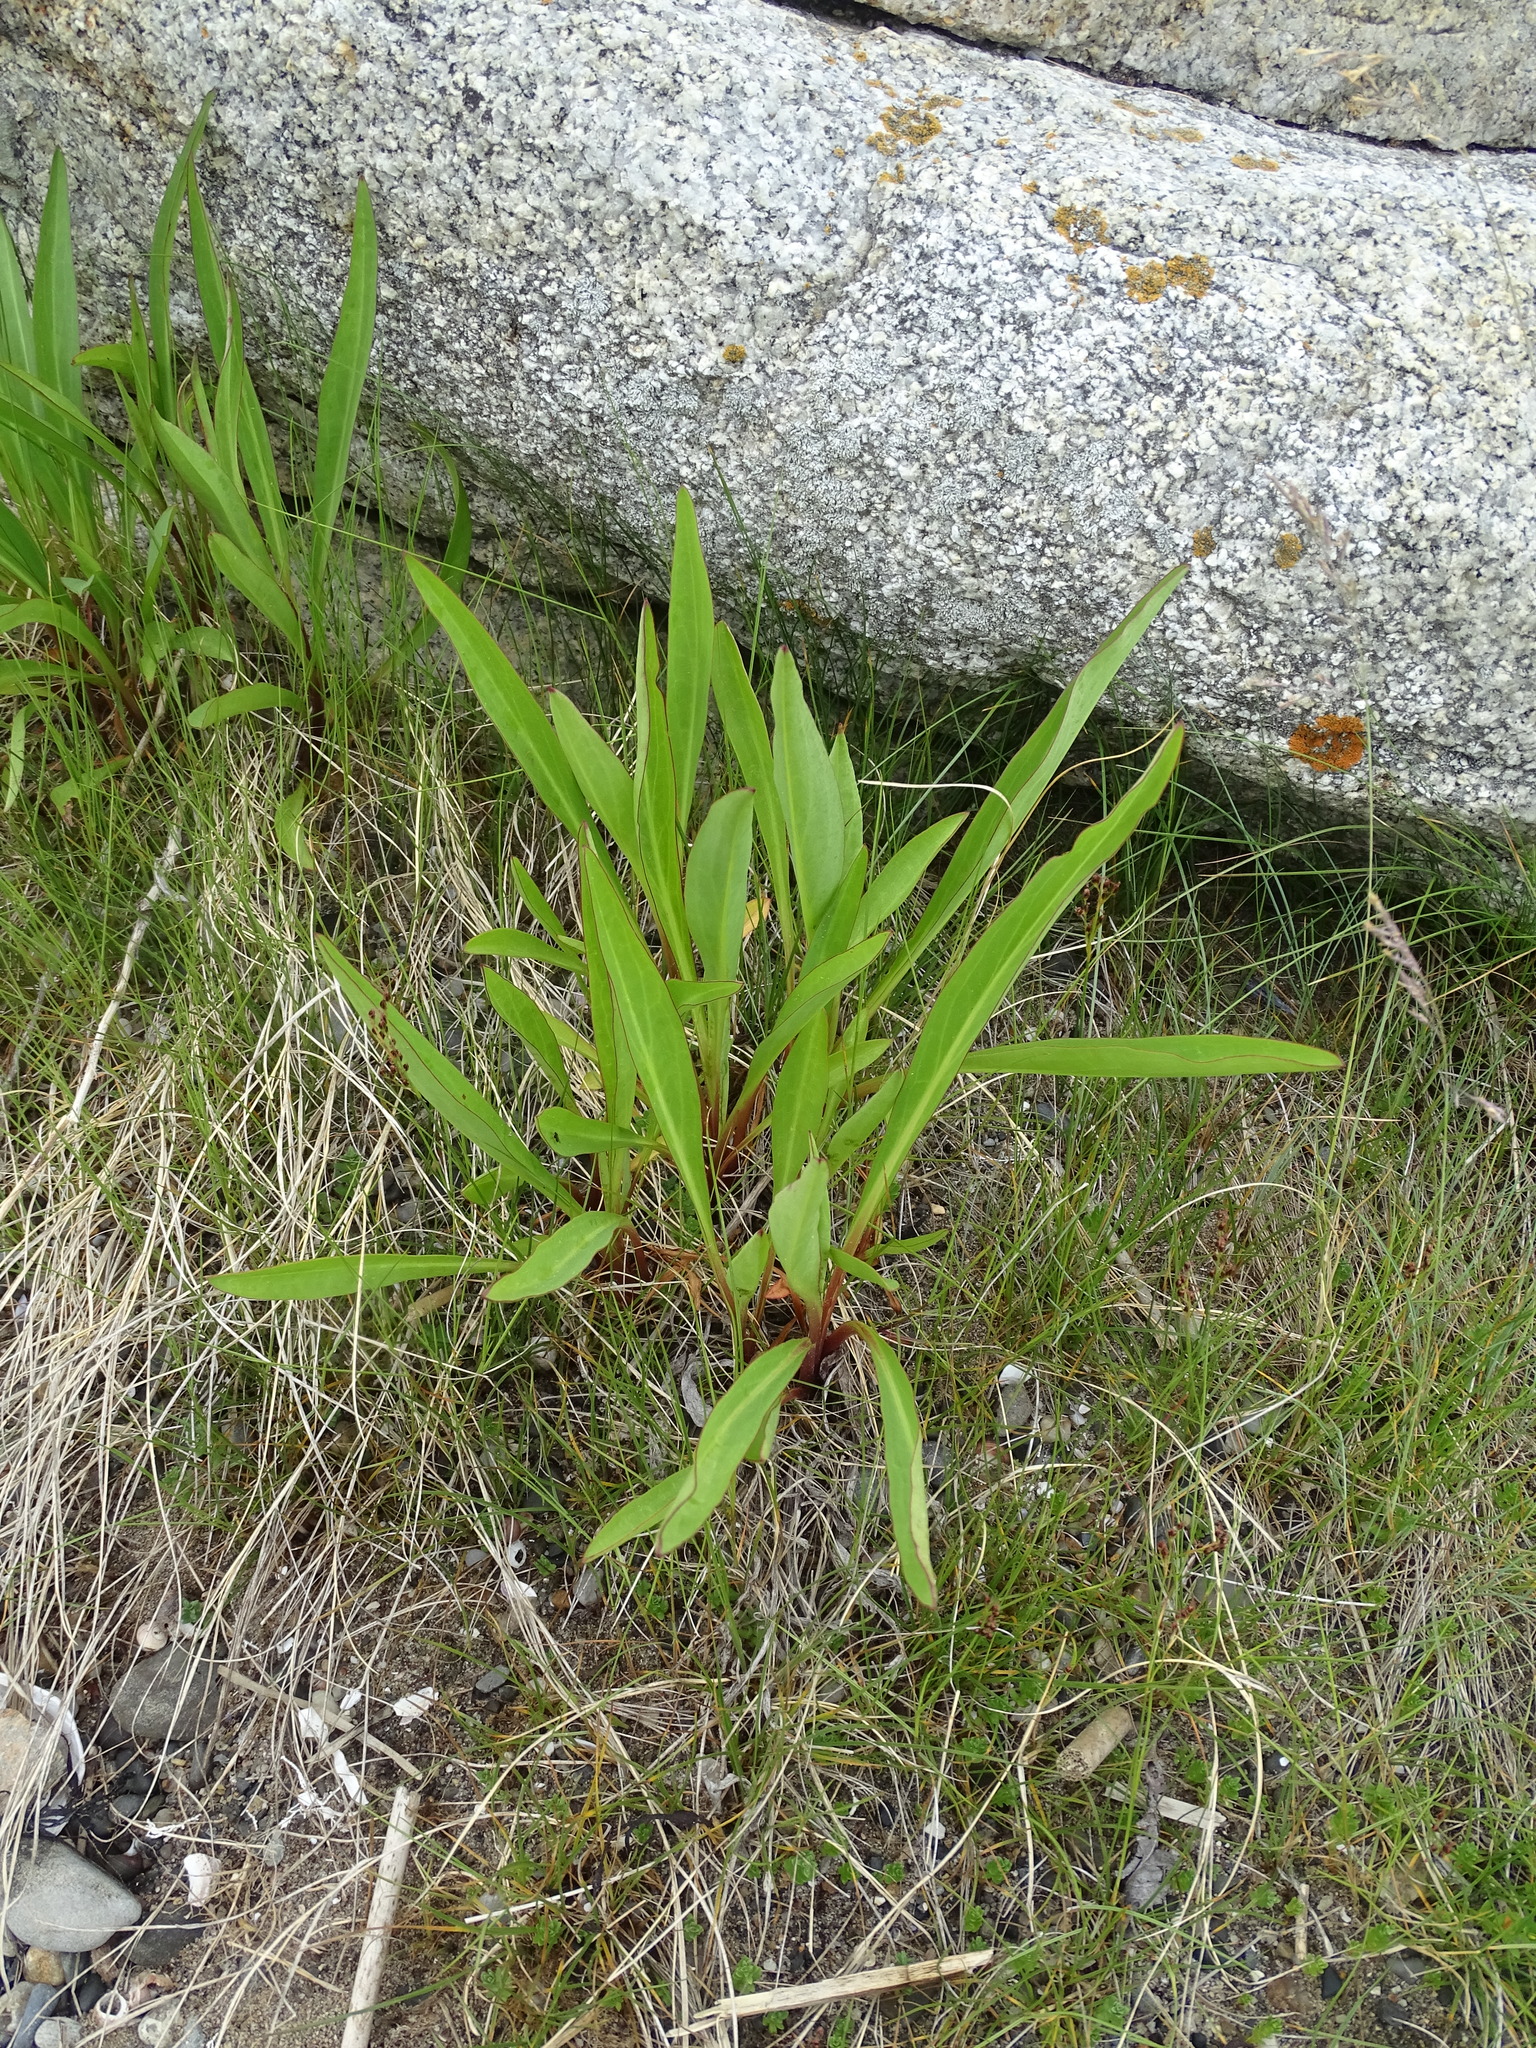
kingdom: Plantae
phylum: Tracheophyta
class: Magnoliopsida
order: Asterales
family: Asteraceae
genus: Solidago
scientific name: Solidago sempervirens
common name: Salt-marsh goldenrod
